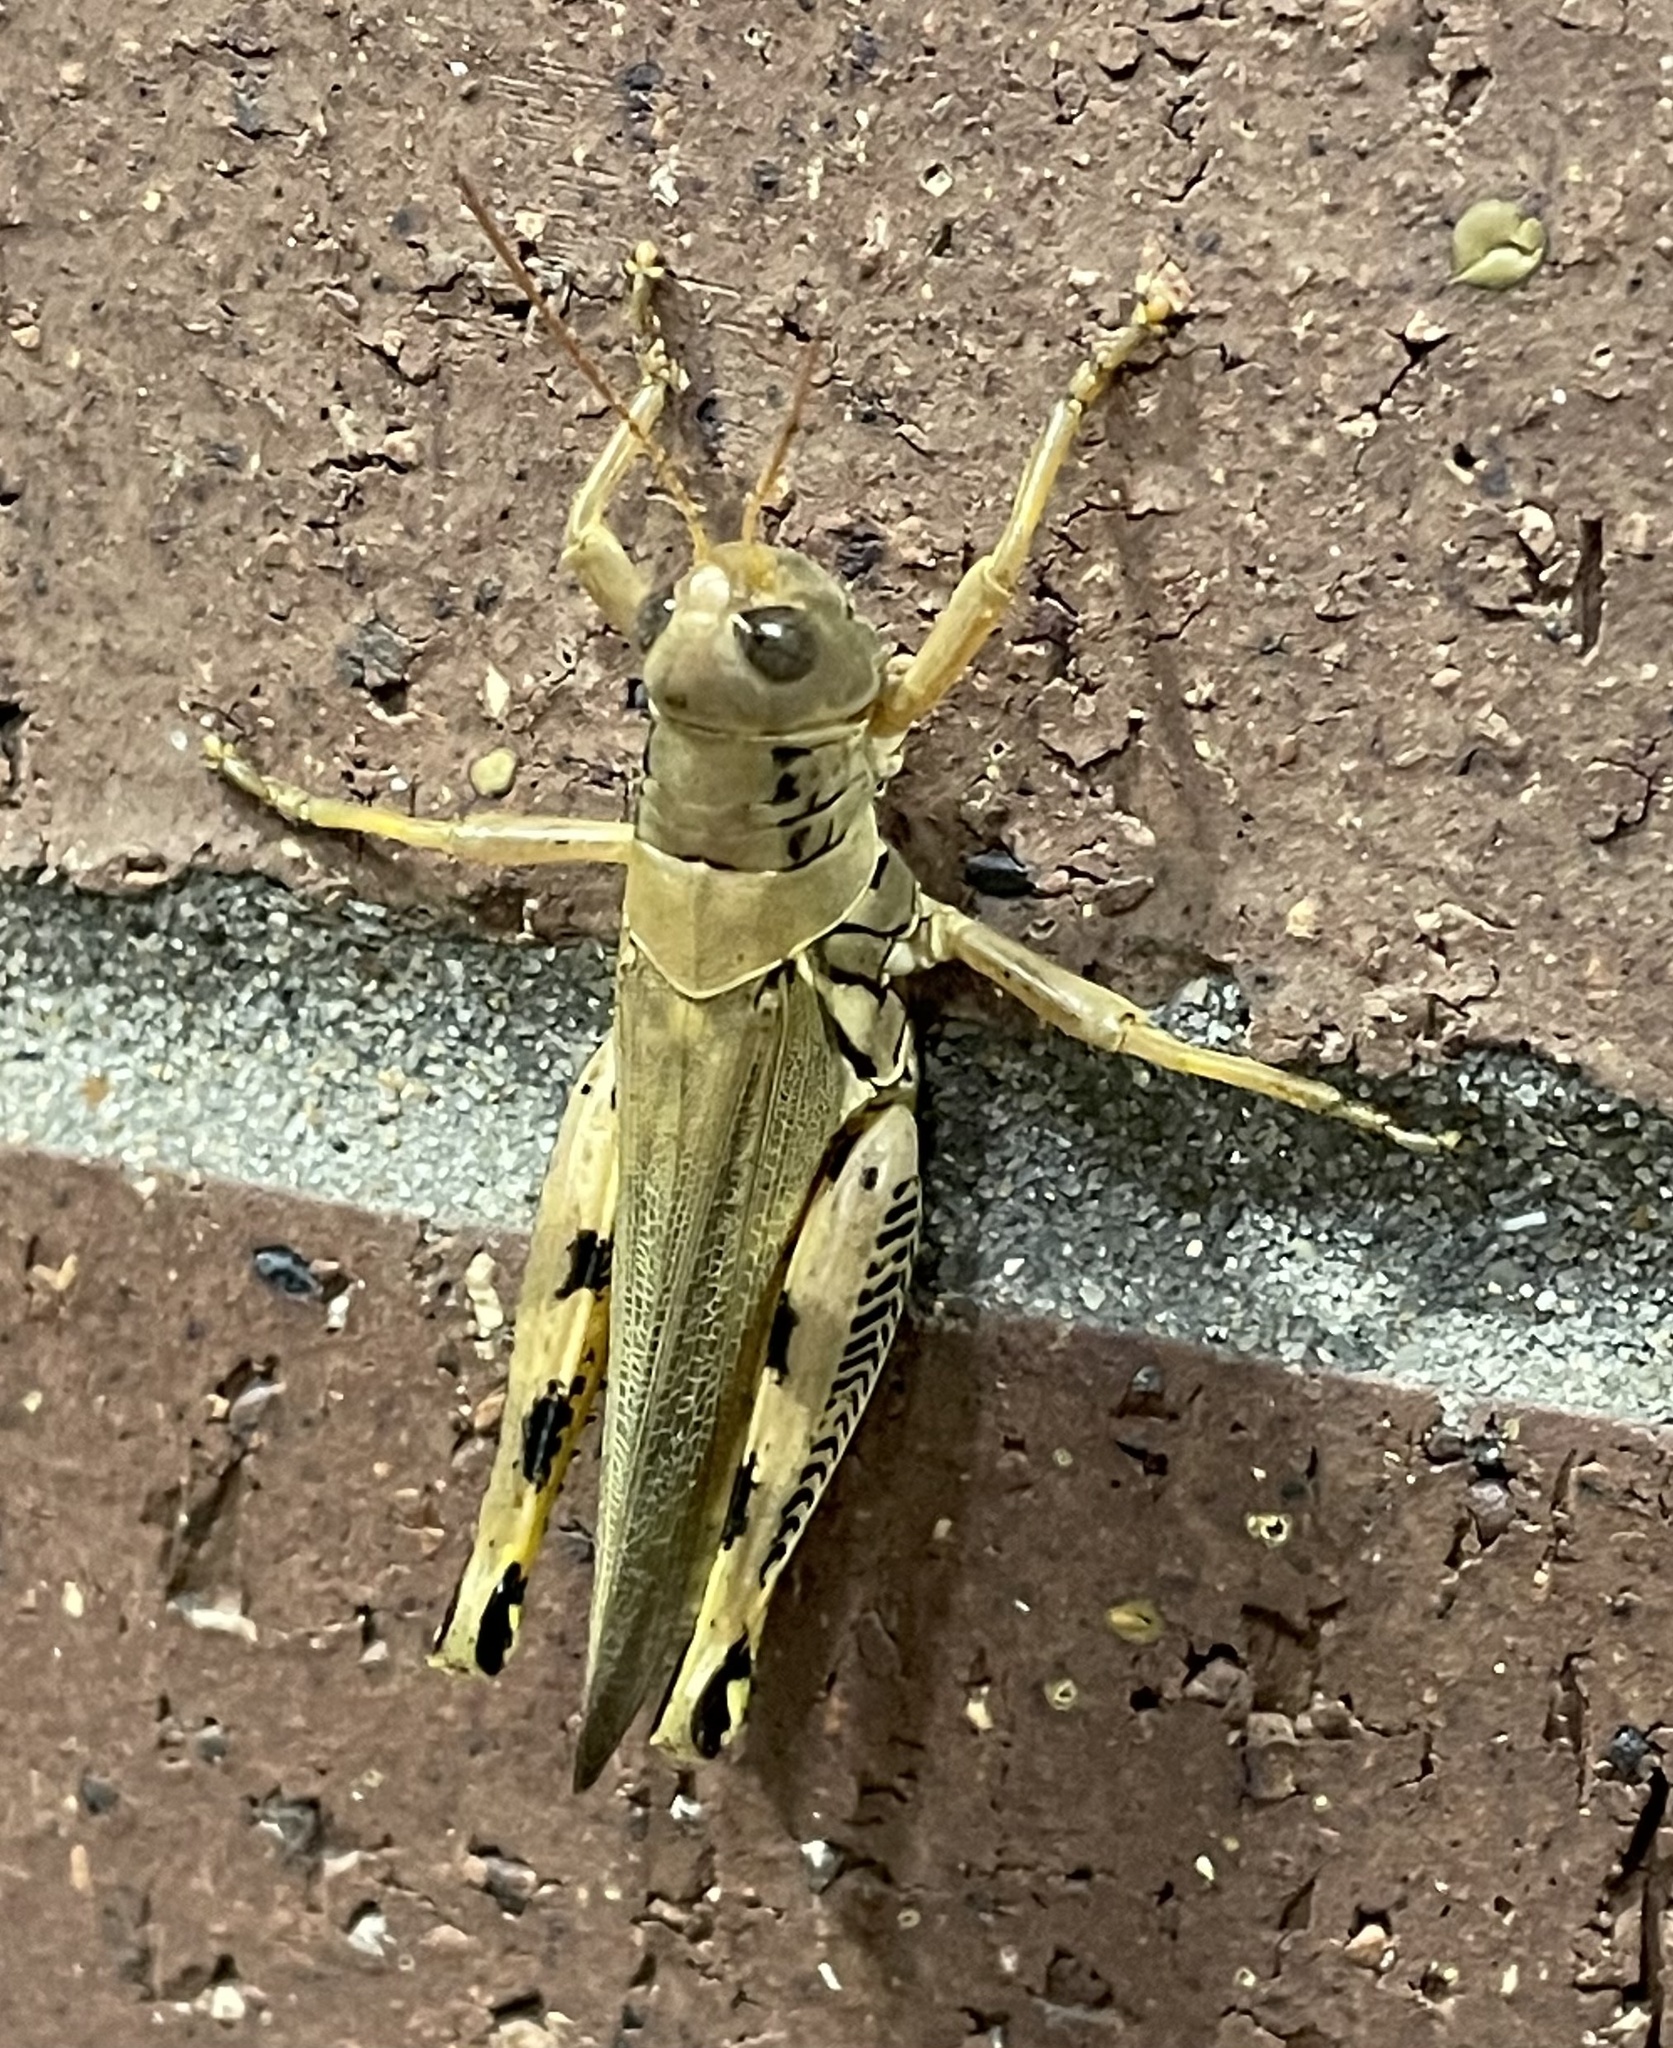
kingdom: Animalia
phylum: Arthropoda
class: Insecta
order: Orthoptera
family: Acrididae
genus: Melanoplus
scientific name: Melanoplus differentialis
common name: Differential grasshopper
